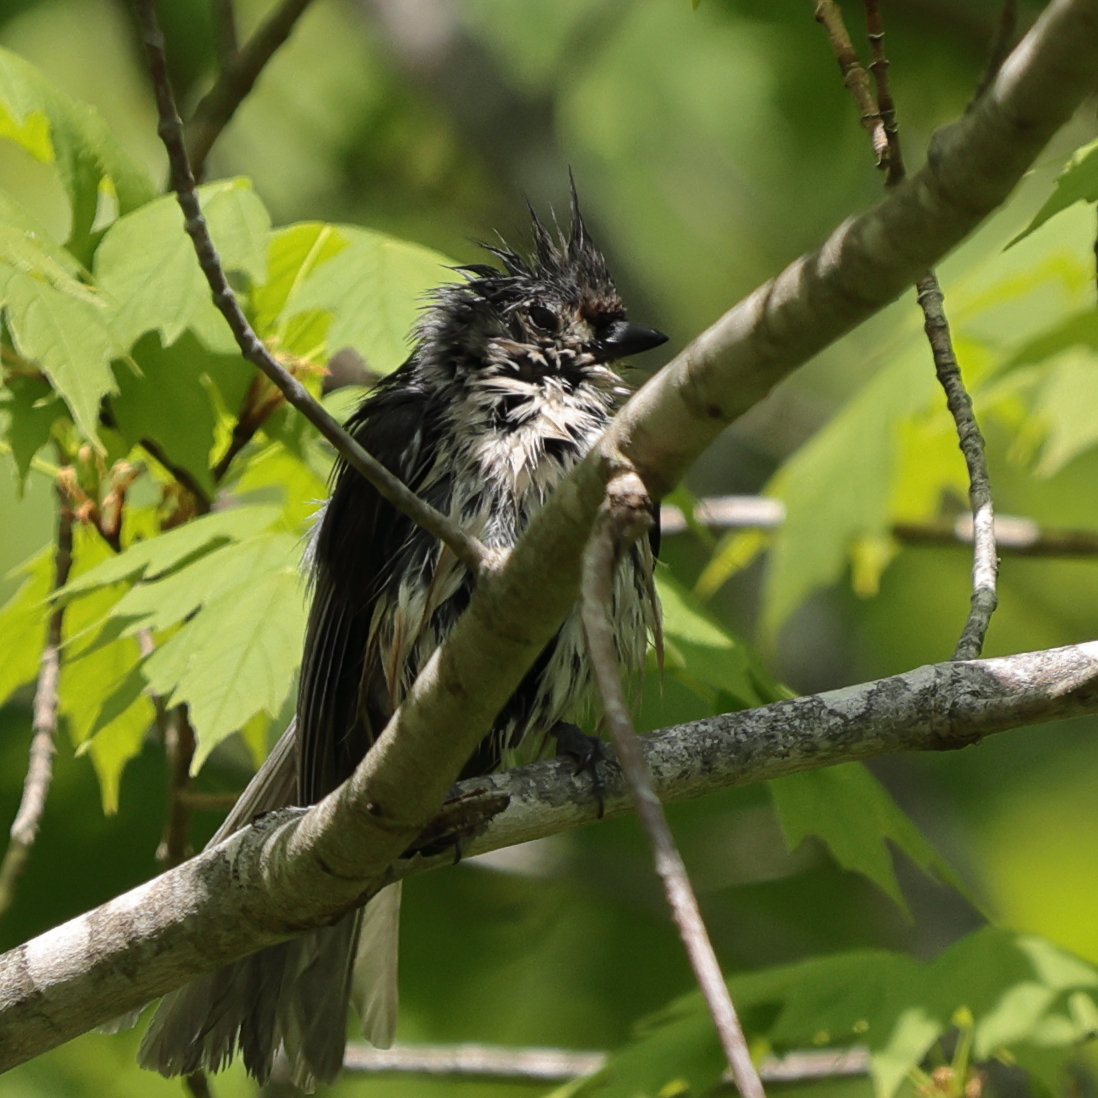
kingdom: Animalia
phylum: Chordata
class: Aves
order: Passeriformes
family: Paridae
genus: Baeolophus
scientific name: Baeolophus bicolor
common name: Tufted titmouse
